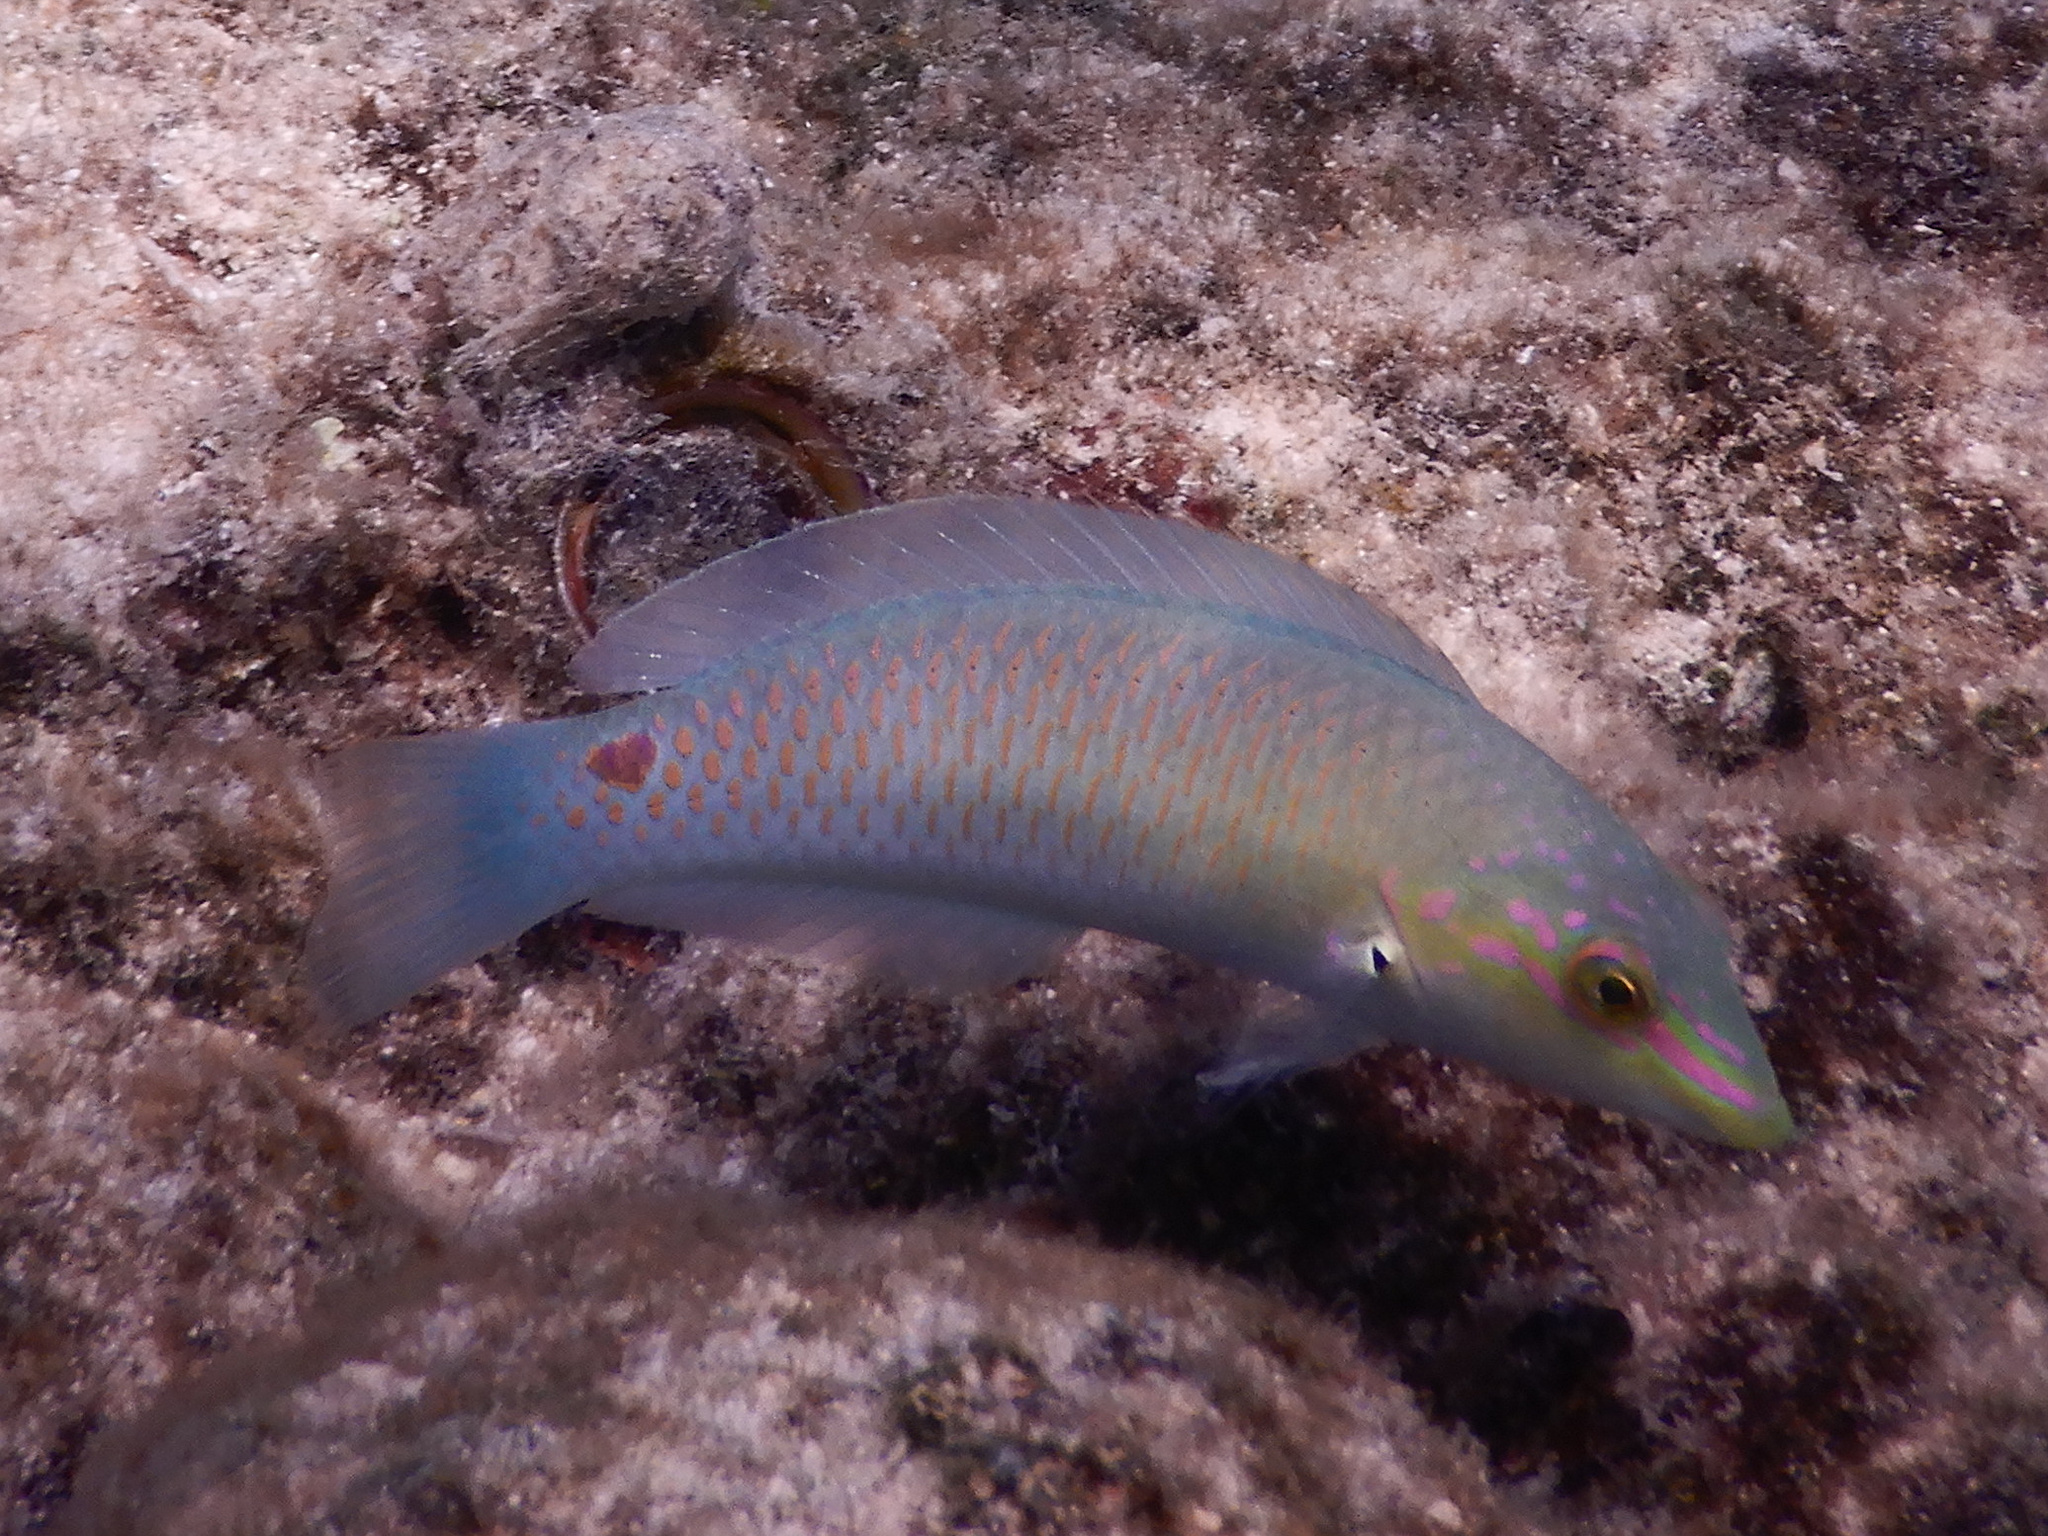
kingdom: Animalia
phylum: Chordata
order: Perciformes
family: Labridae
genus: Halichoeres
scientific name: Halichoeres trimaculatus
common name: Three-spot wrasse
